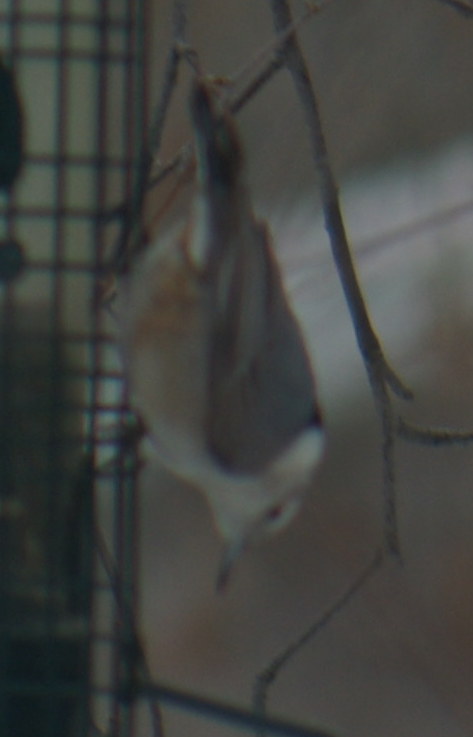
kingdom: Animalia
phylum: Chordata
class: Aves
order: Passeriformes
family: Sittidae
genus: Sitta
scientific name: Sitta carolinensis
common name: White-breasted nuthatch
